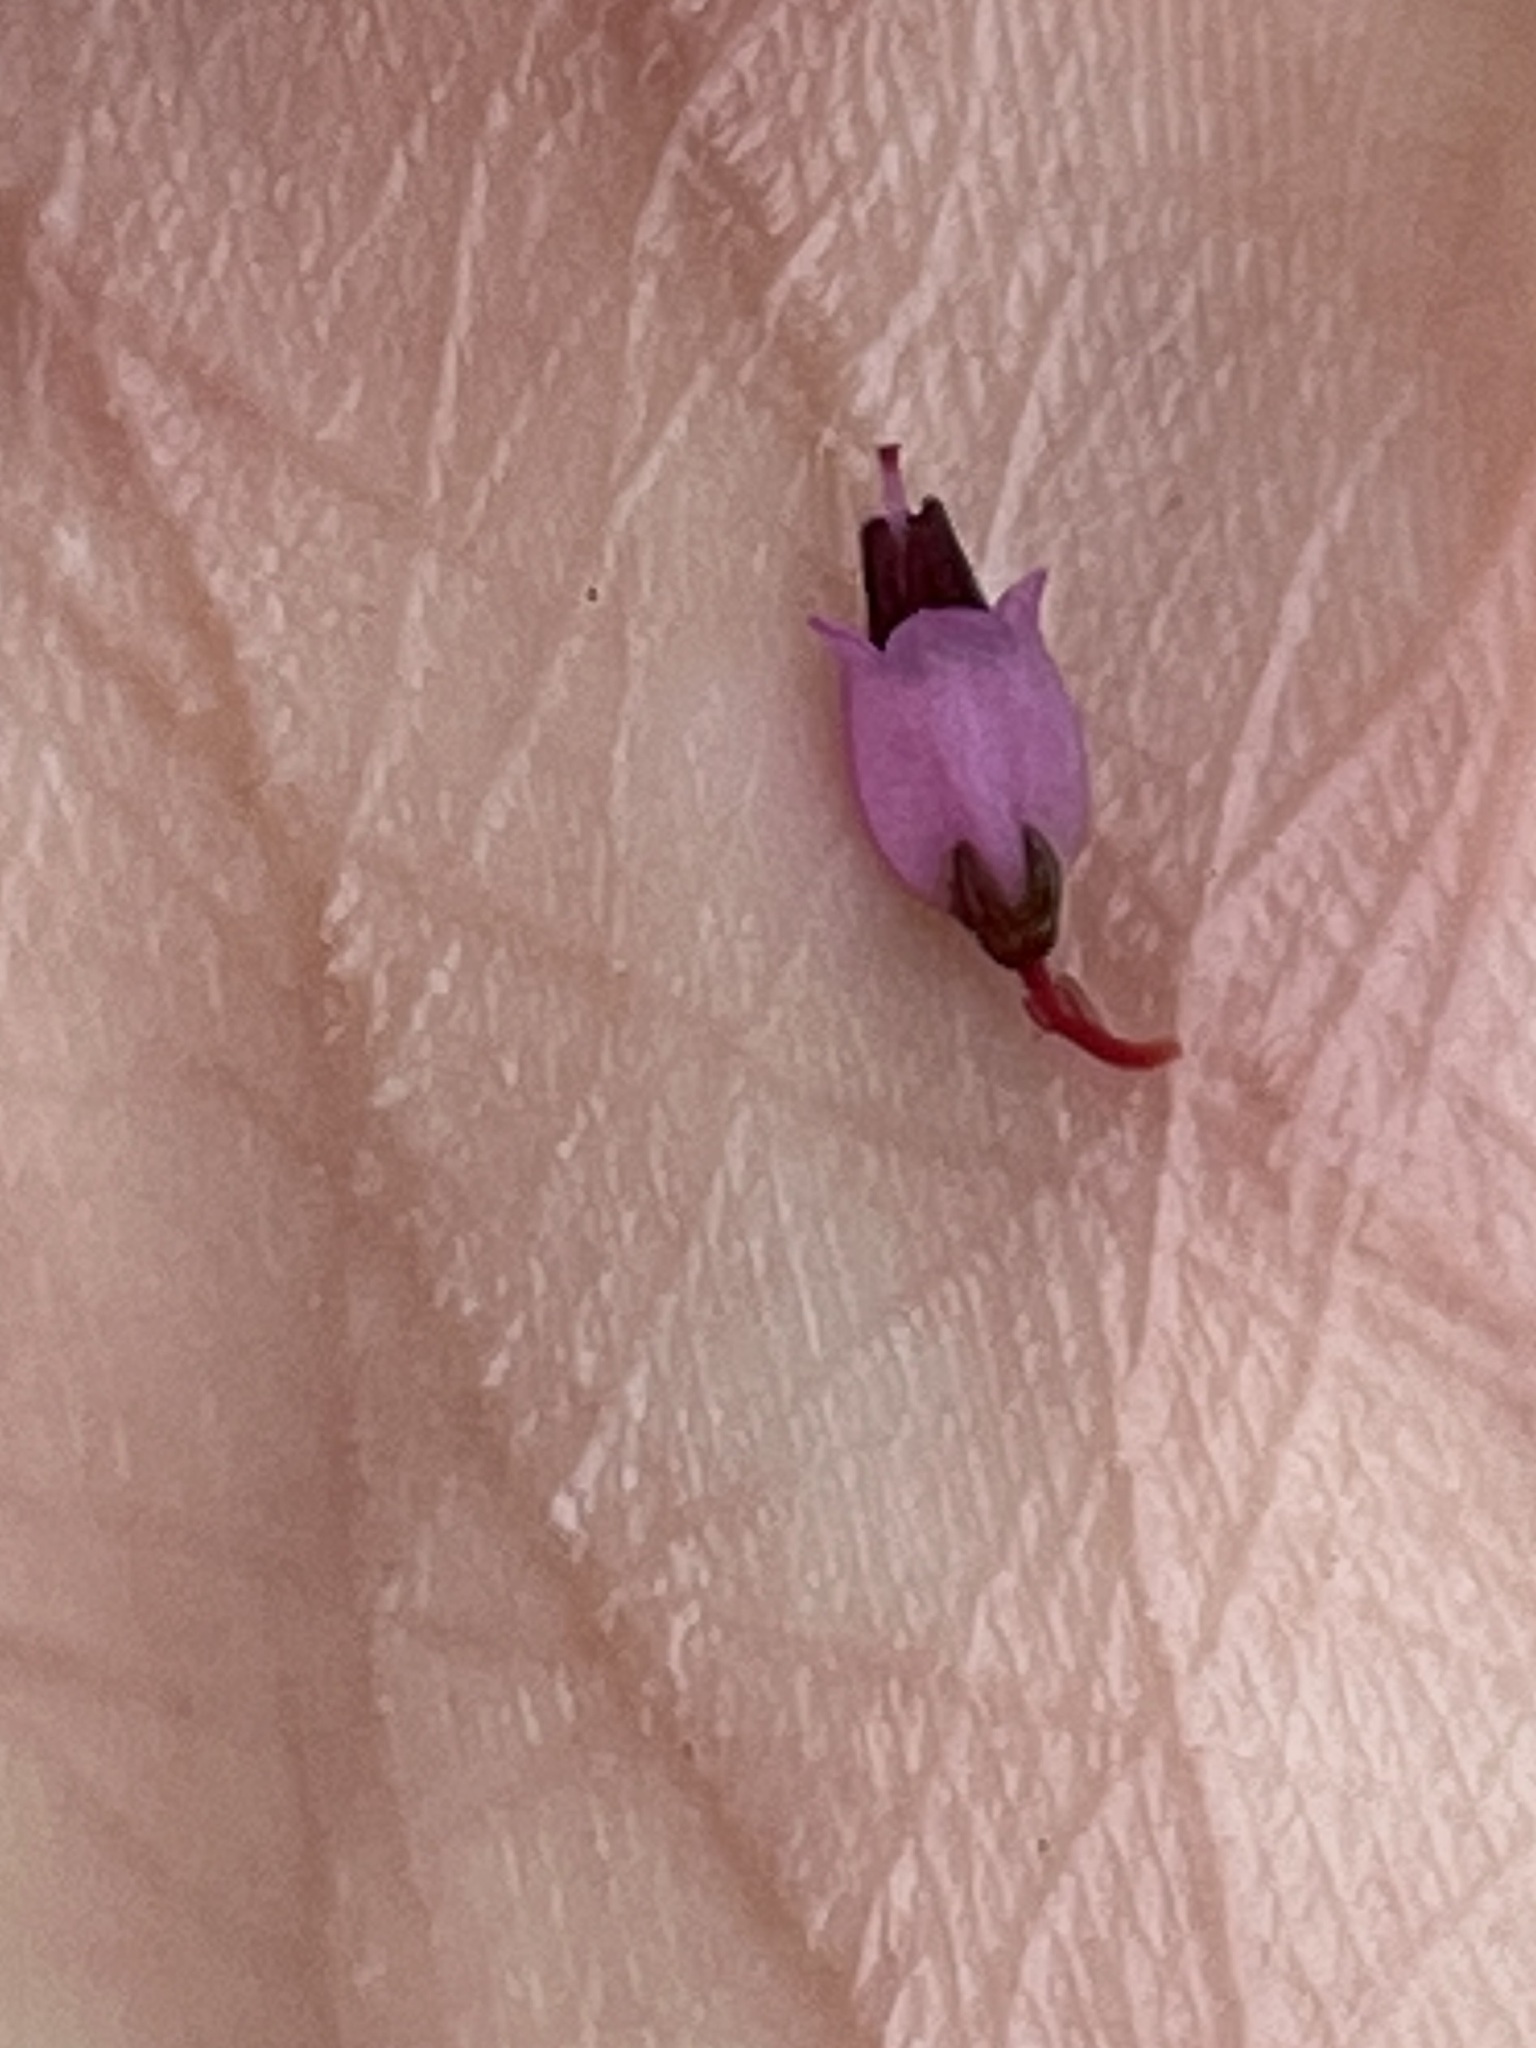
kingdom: Plantae
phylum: Tracheophyta
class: Magnoliopsida
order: Ericales
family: Ericaceae
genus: Erica
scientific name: Erica equisetifolia
